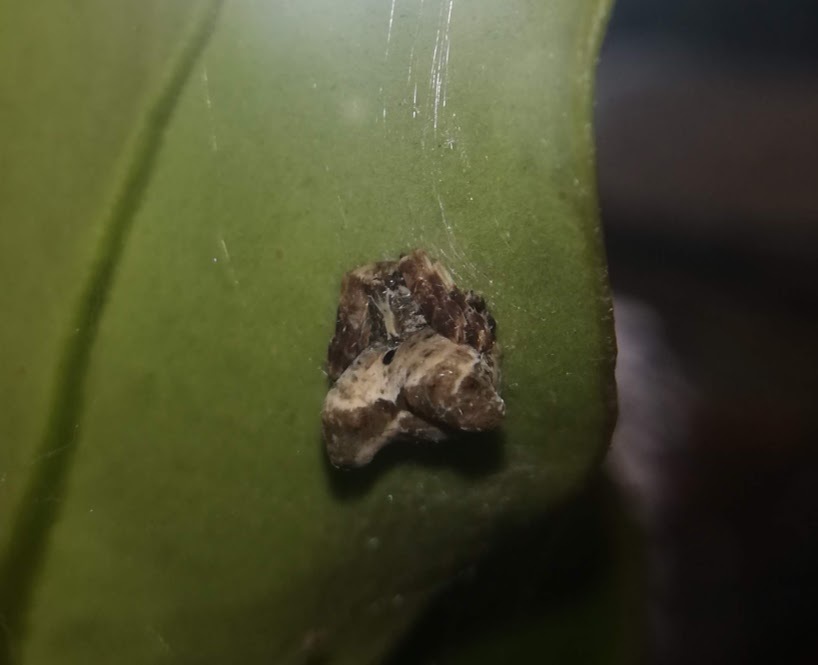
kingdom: Animalia
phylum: Arthropoda
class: Arachnida
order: Araneae
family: Araneidae
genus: Celaenia
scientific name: Celaenia olivacea
